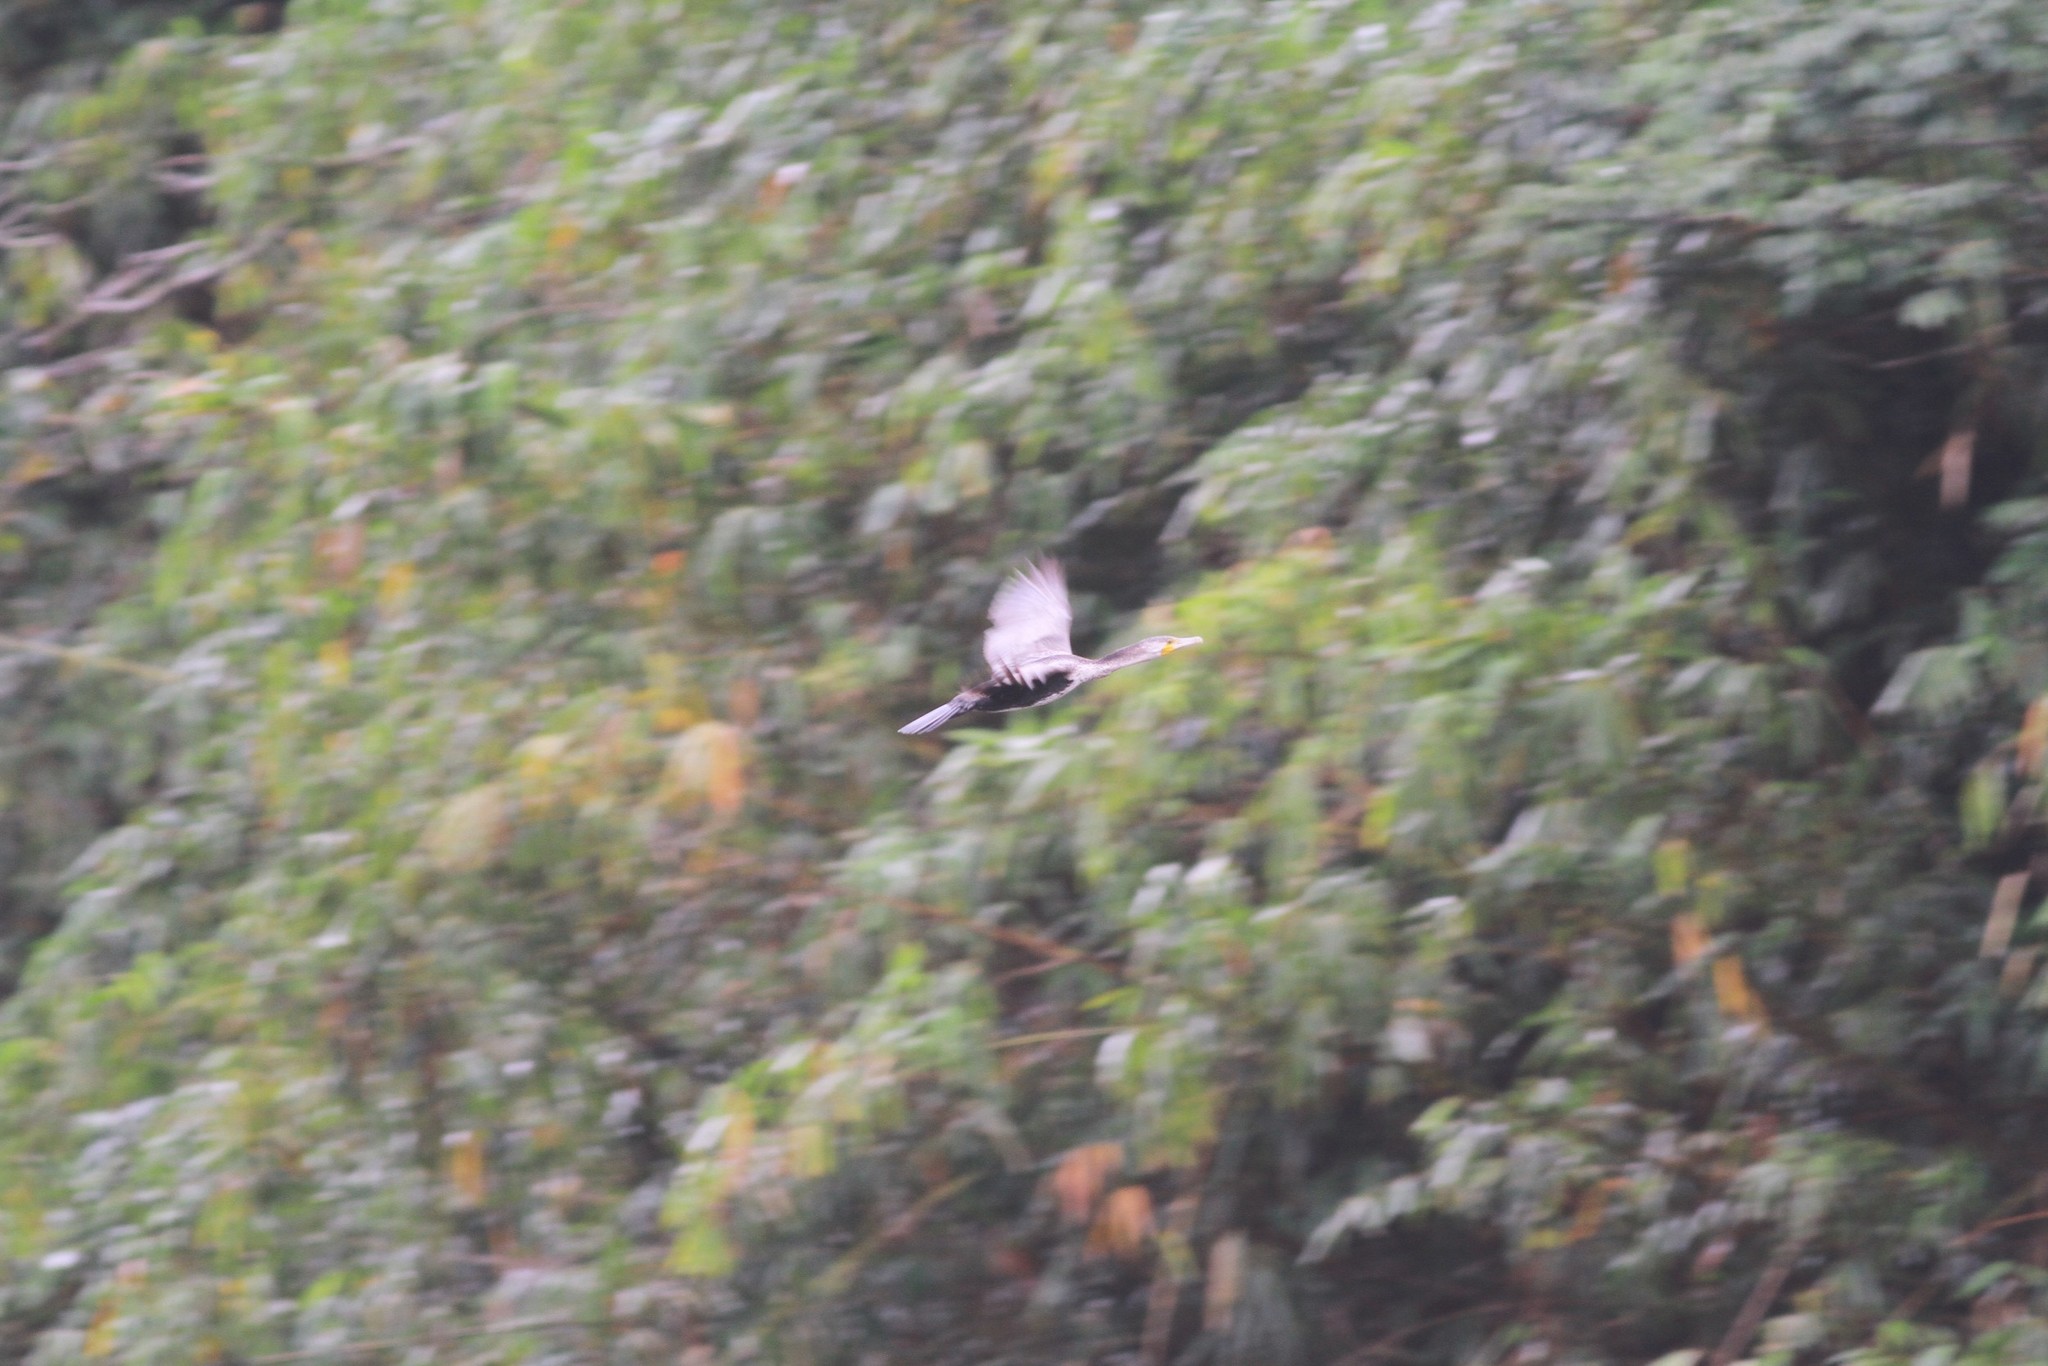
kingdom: Animalia
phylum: Chordata
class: Aves
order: Suliformes
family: Phalacrocoracidae
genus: Phalacrocorax
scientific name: Phalacrocorax carbo
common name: Great cormorant
